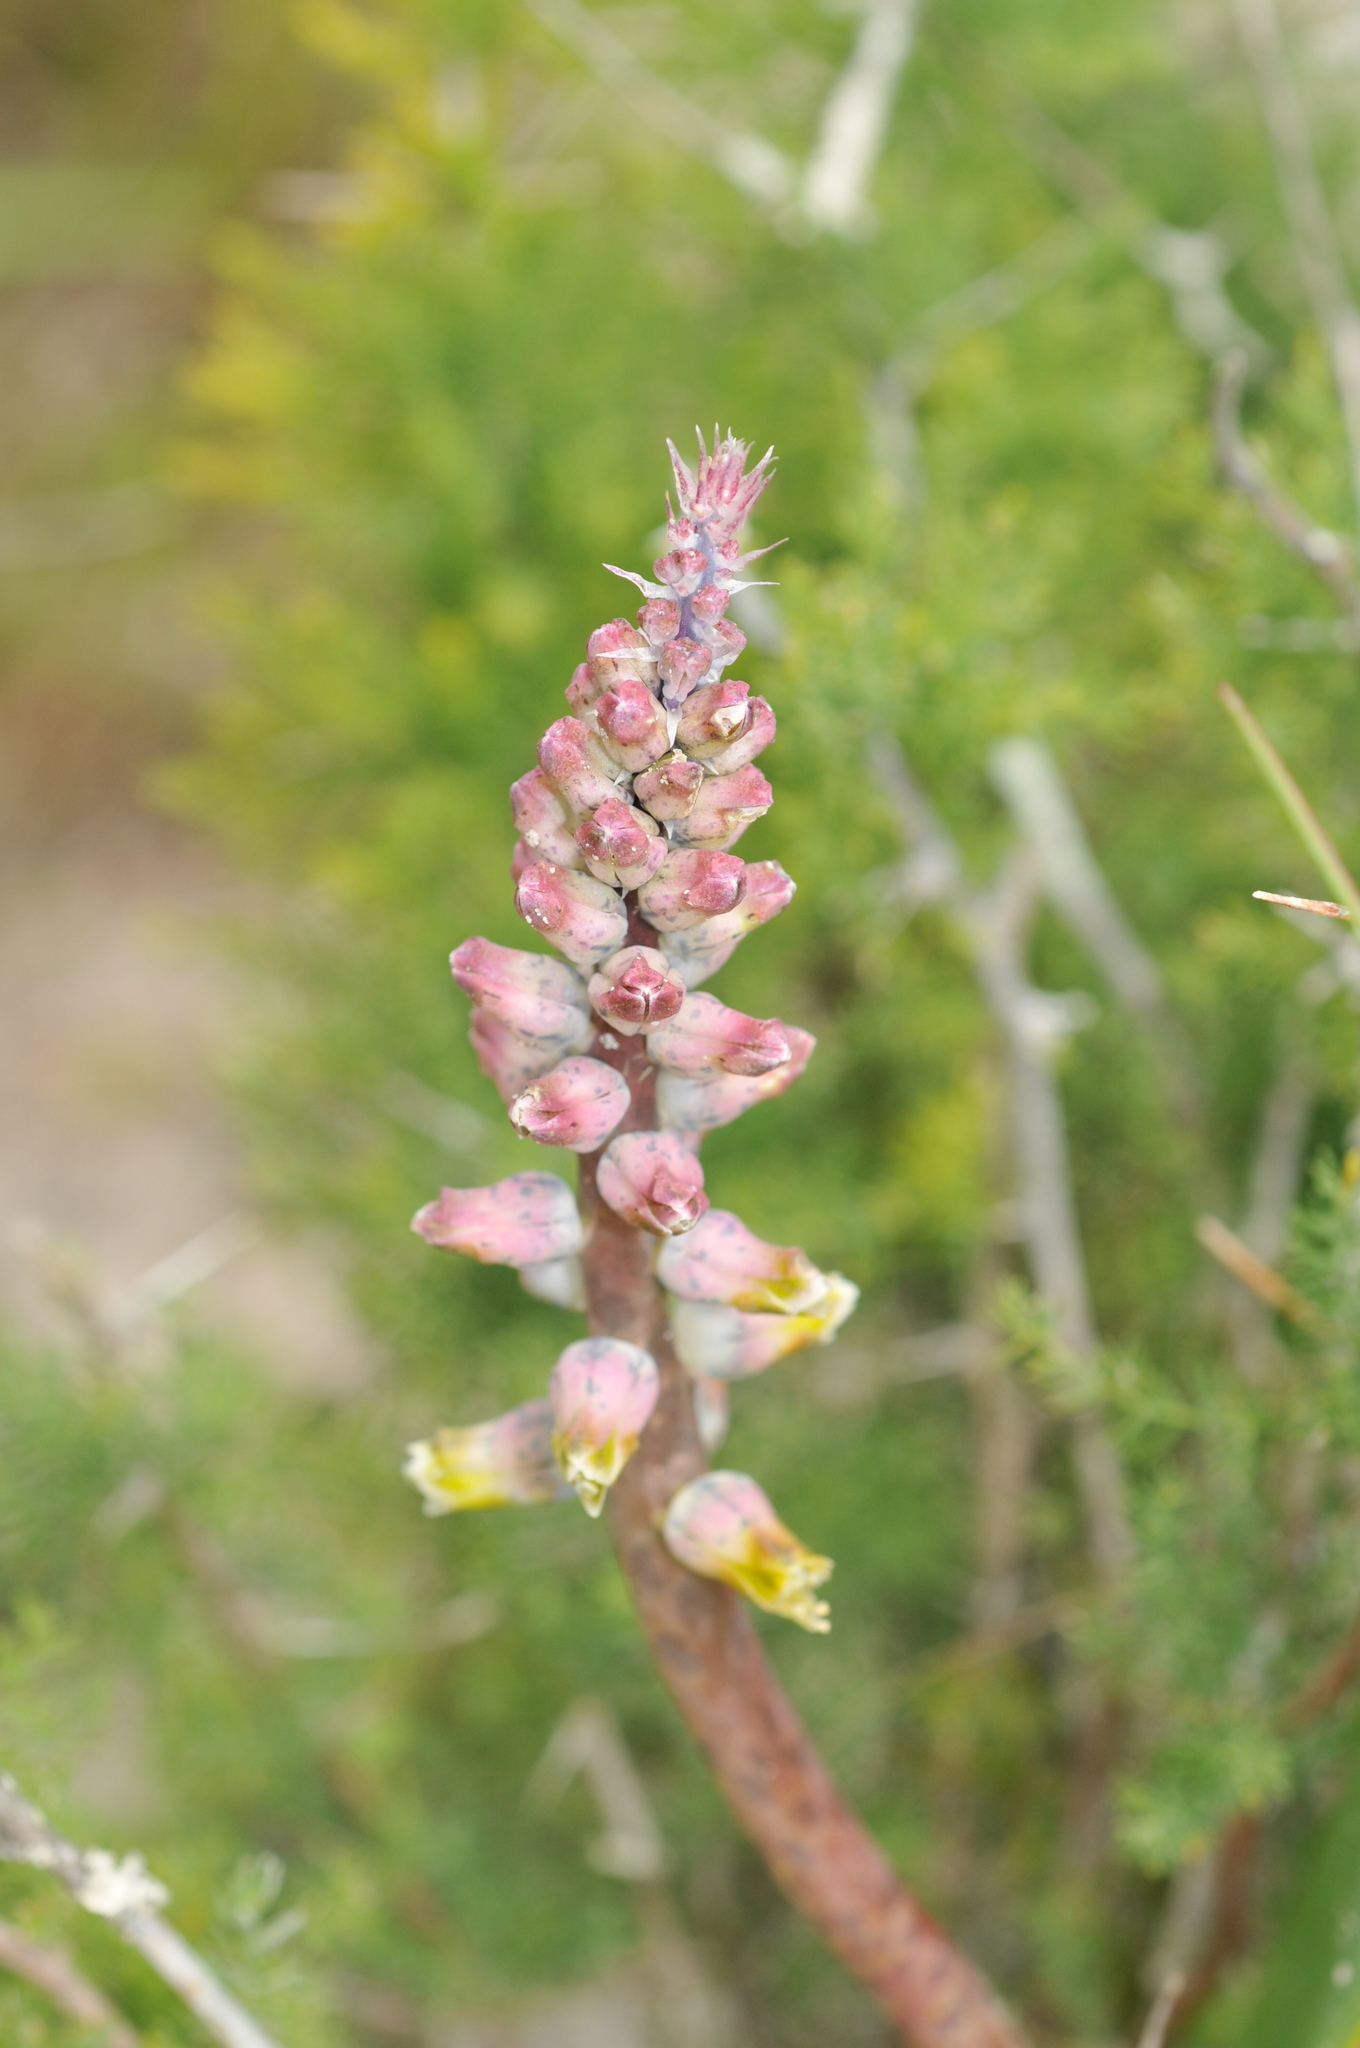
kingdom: Plantae
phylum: Tracheophyta
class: Liliopsida
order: Asparagales
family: Asparagaceae
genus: Lachenalia
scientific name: Lachenalia variegata
